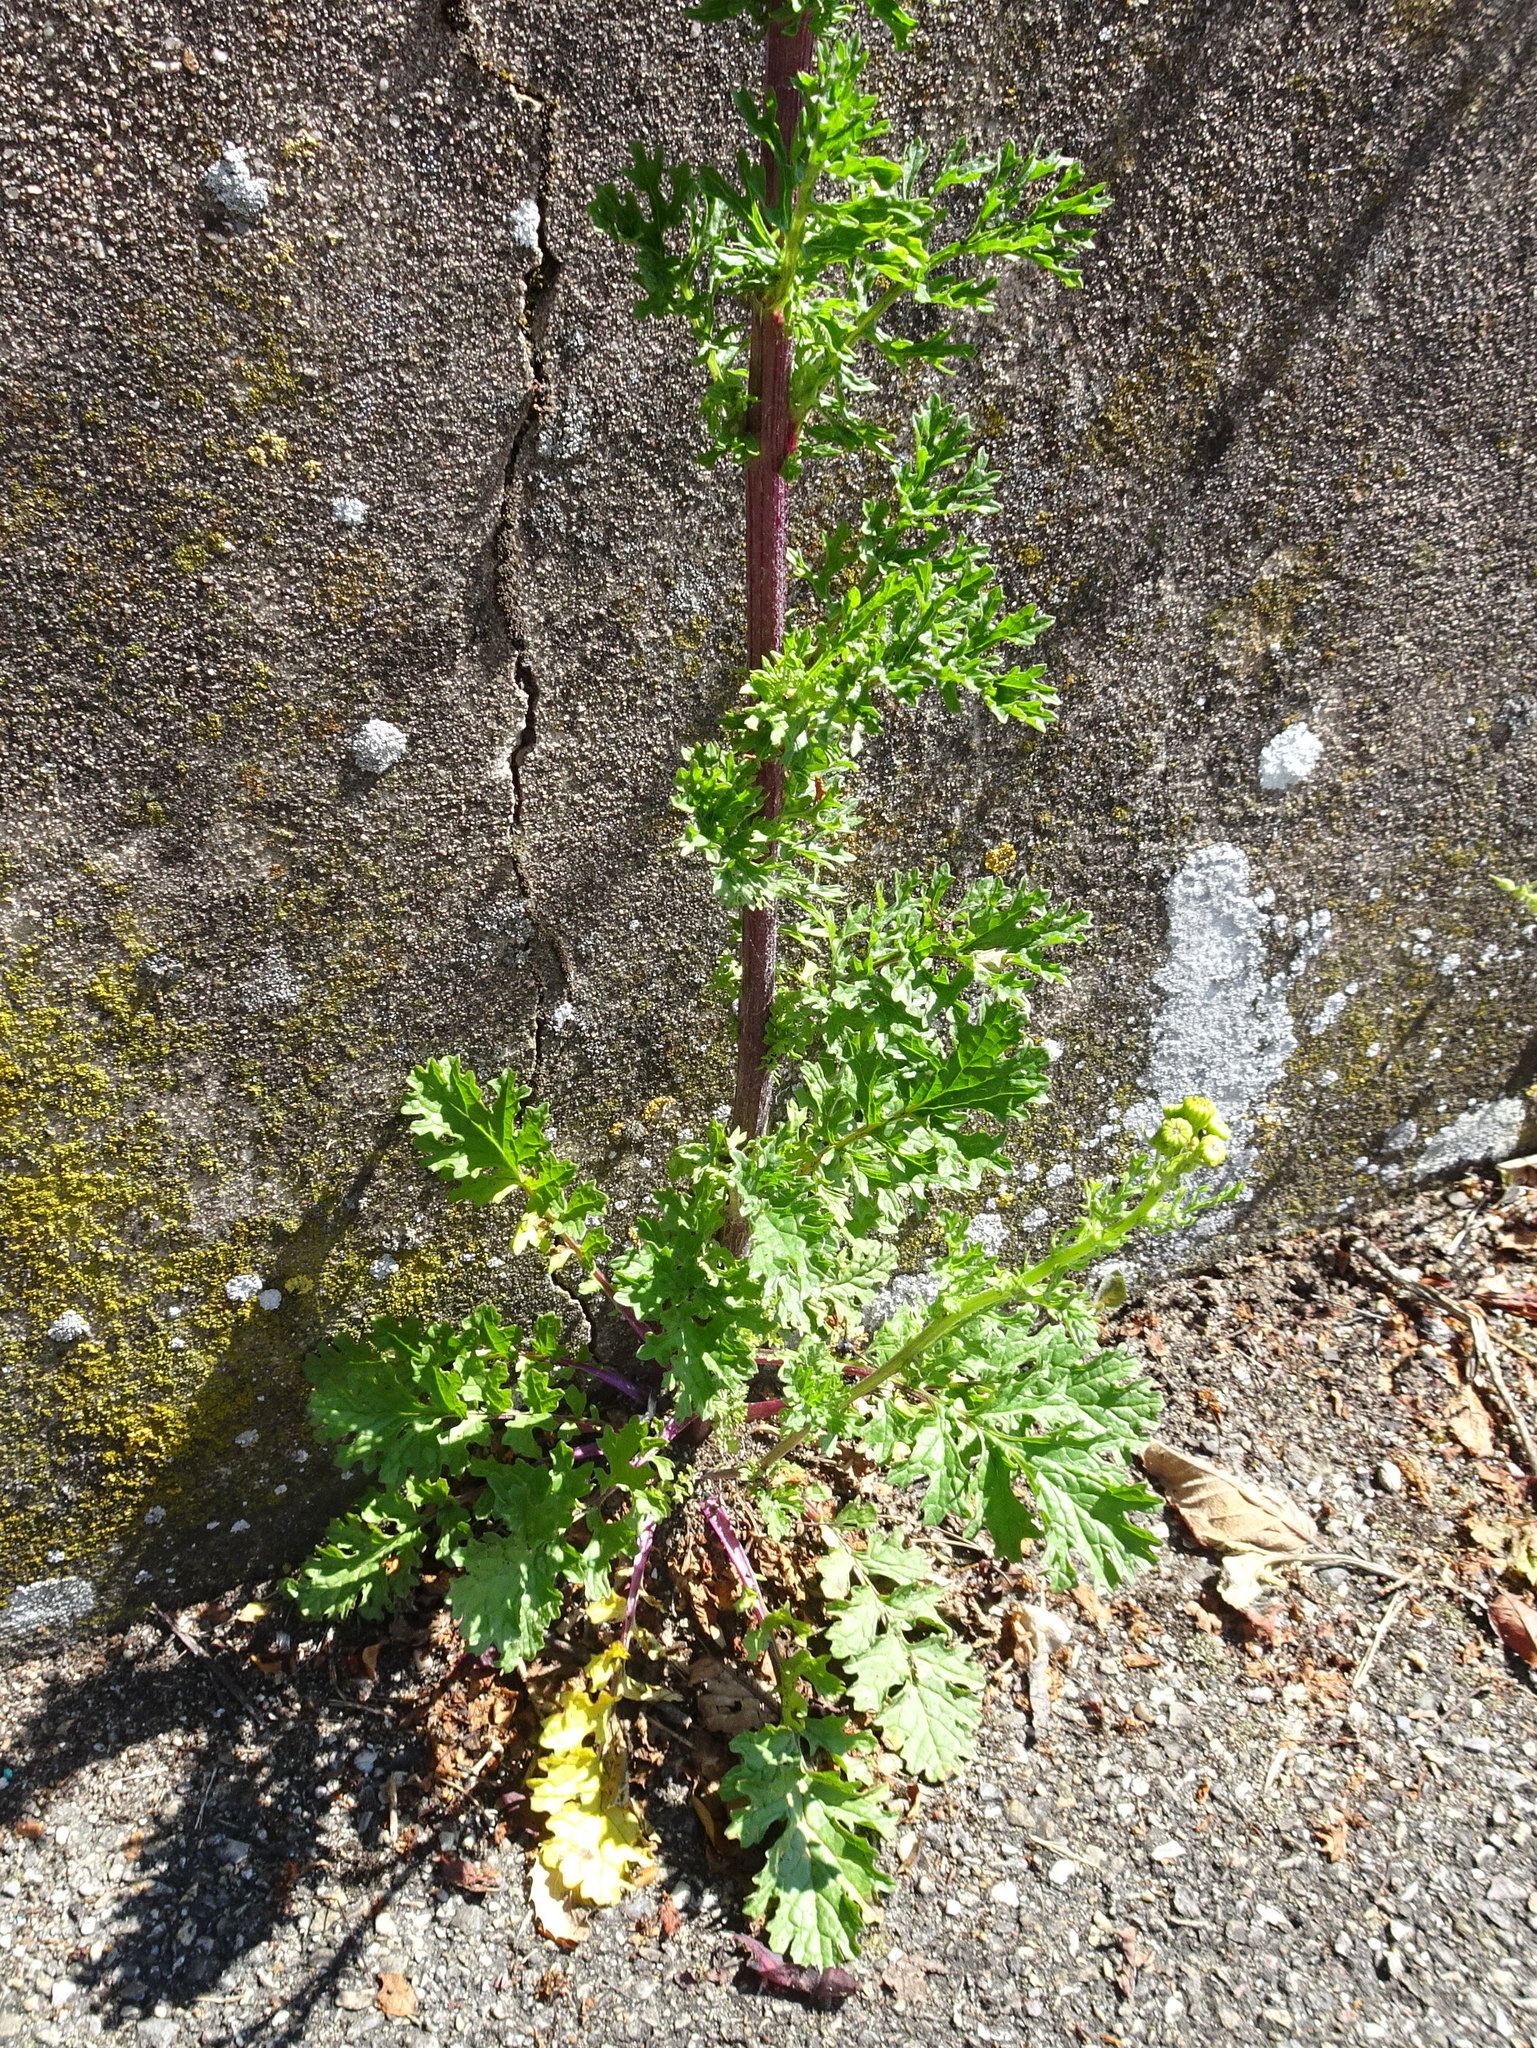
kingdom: Plantae
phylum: Tracheophyta
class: Magnoliopsida
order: Asterales
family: Asteraceae
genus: Jacobaea
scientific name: Jacobaea vulgaris
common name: Stinking willie
